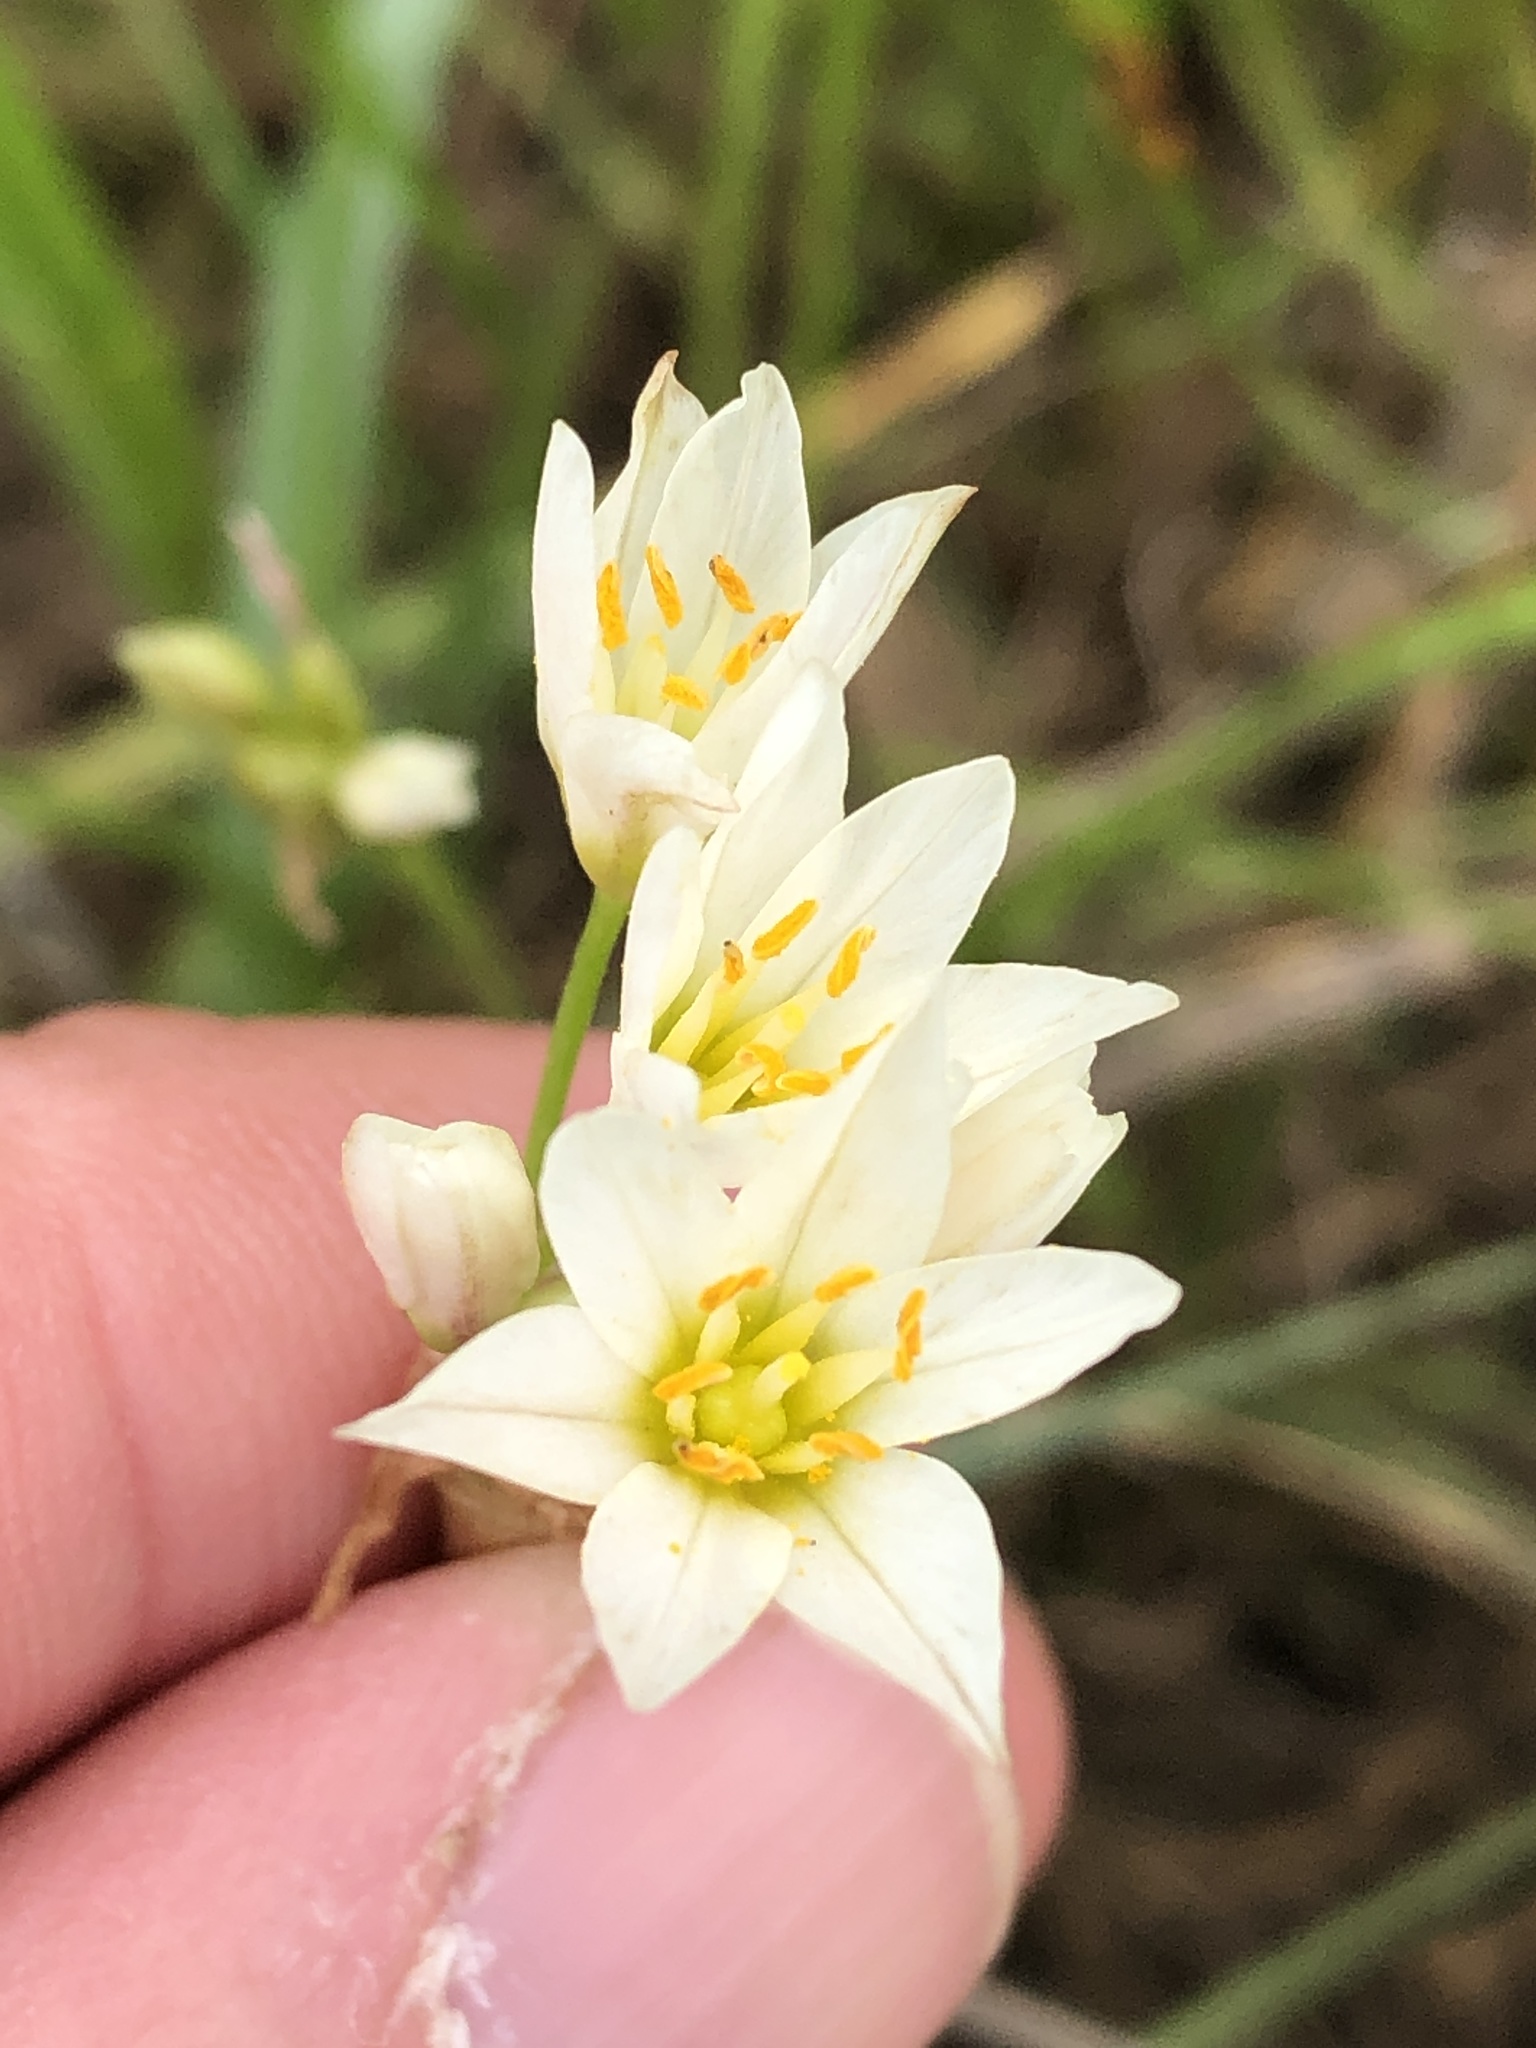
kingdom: Plantae
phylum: Tracheophyta
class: Liliopsida
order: Asparagales
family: Amaryllidaceae
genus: Nothoscordum
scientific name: Nothoscordum bivalve
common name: Crow-poison
